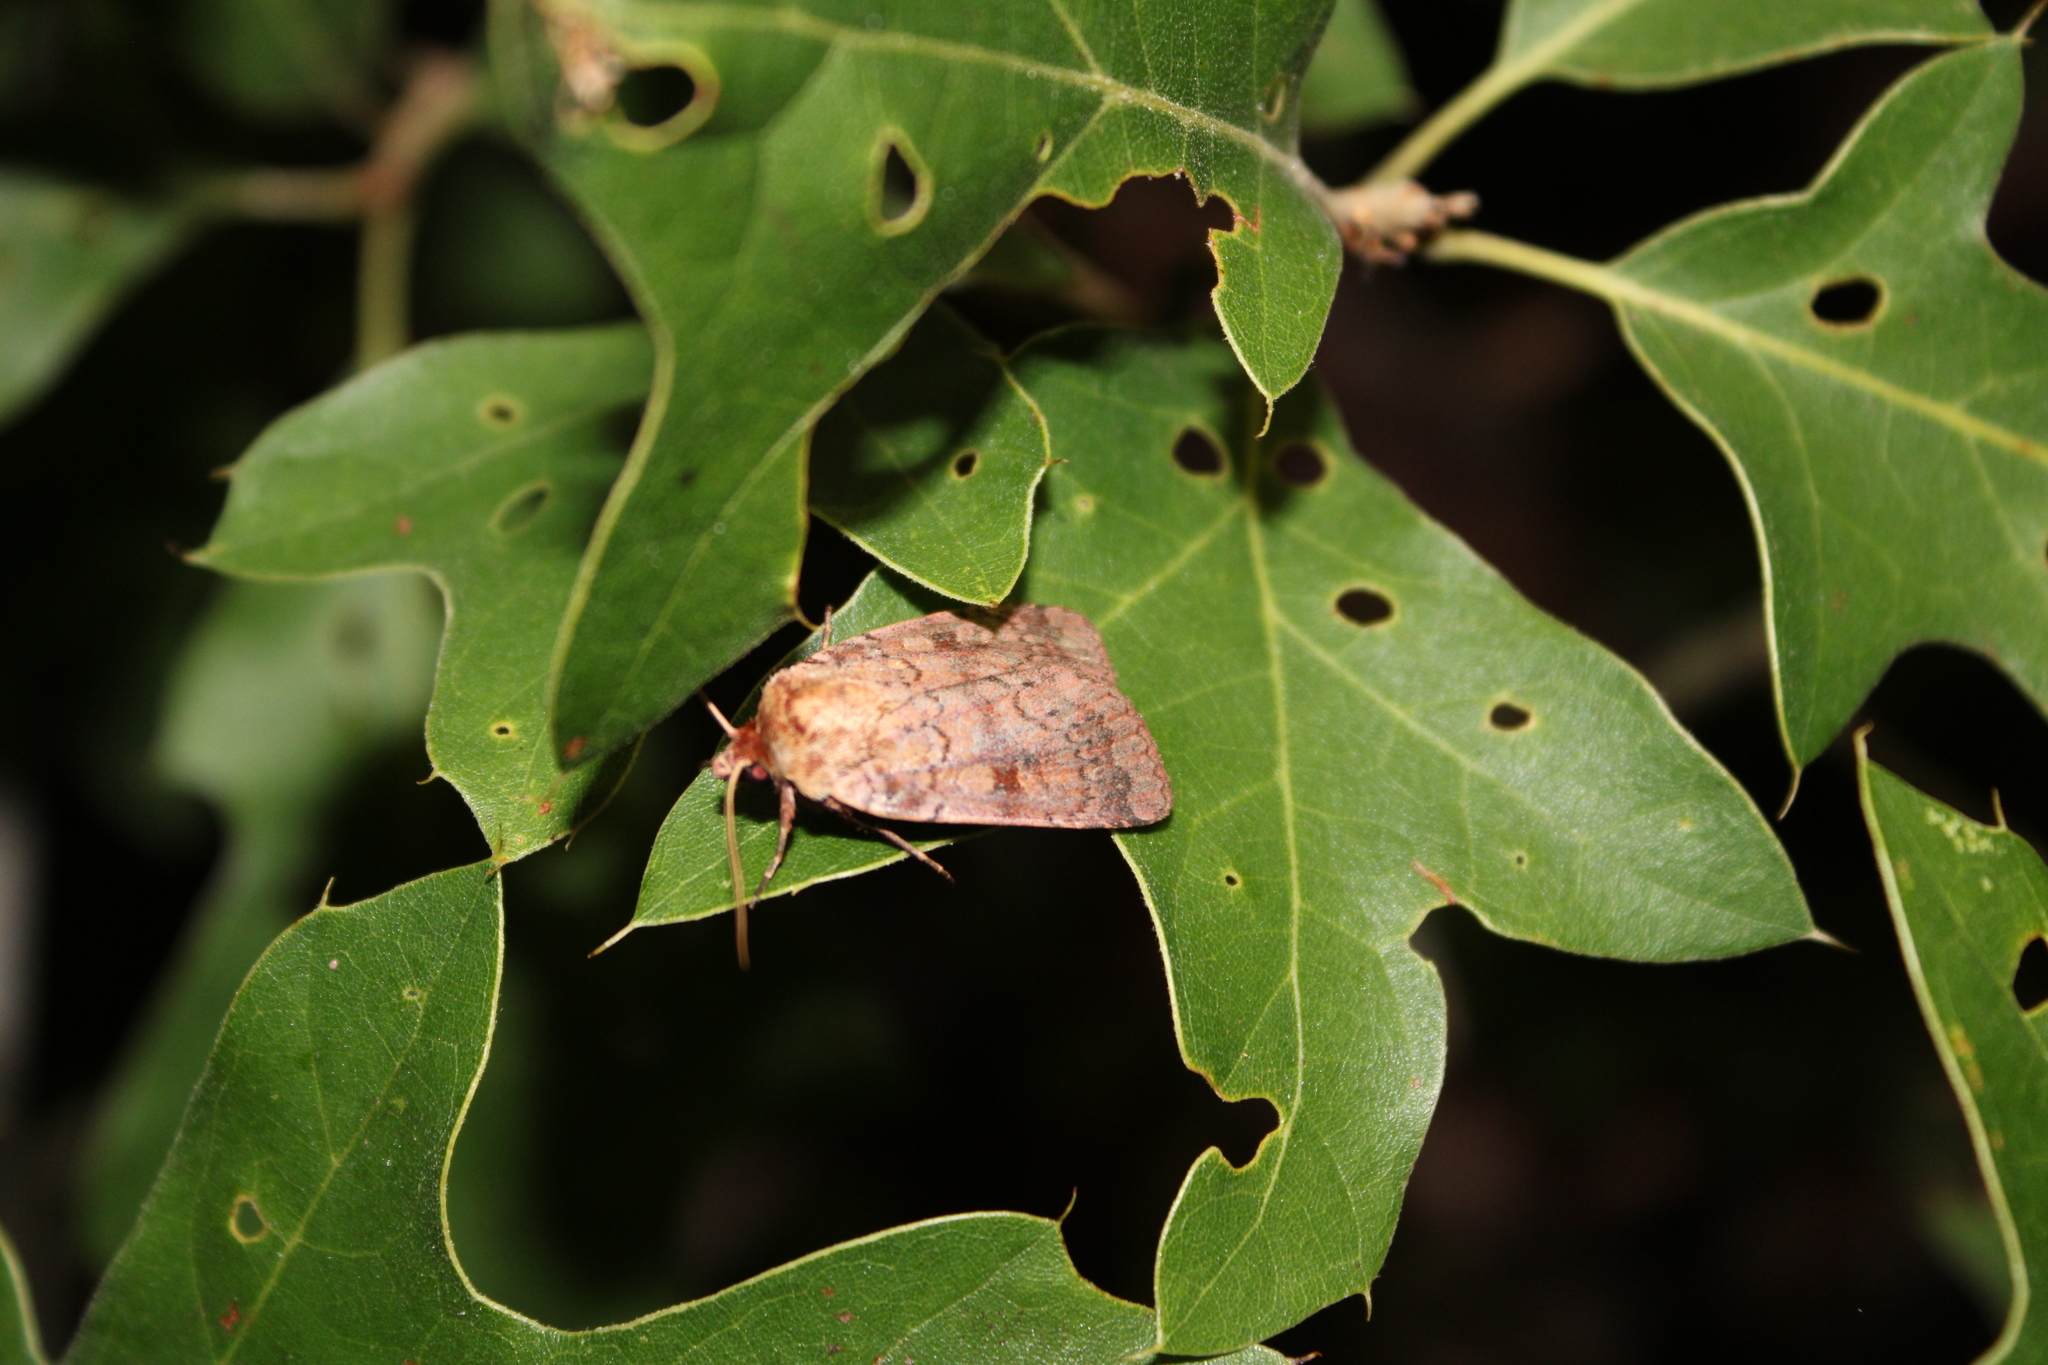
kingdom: Animalia
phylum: Arthropoda
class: Insecta
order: Lepidoptera
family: Noctuidae
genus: Lycophotia
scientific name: Lycophotia phyllophora
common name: Lycophotia moth
